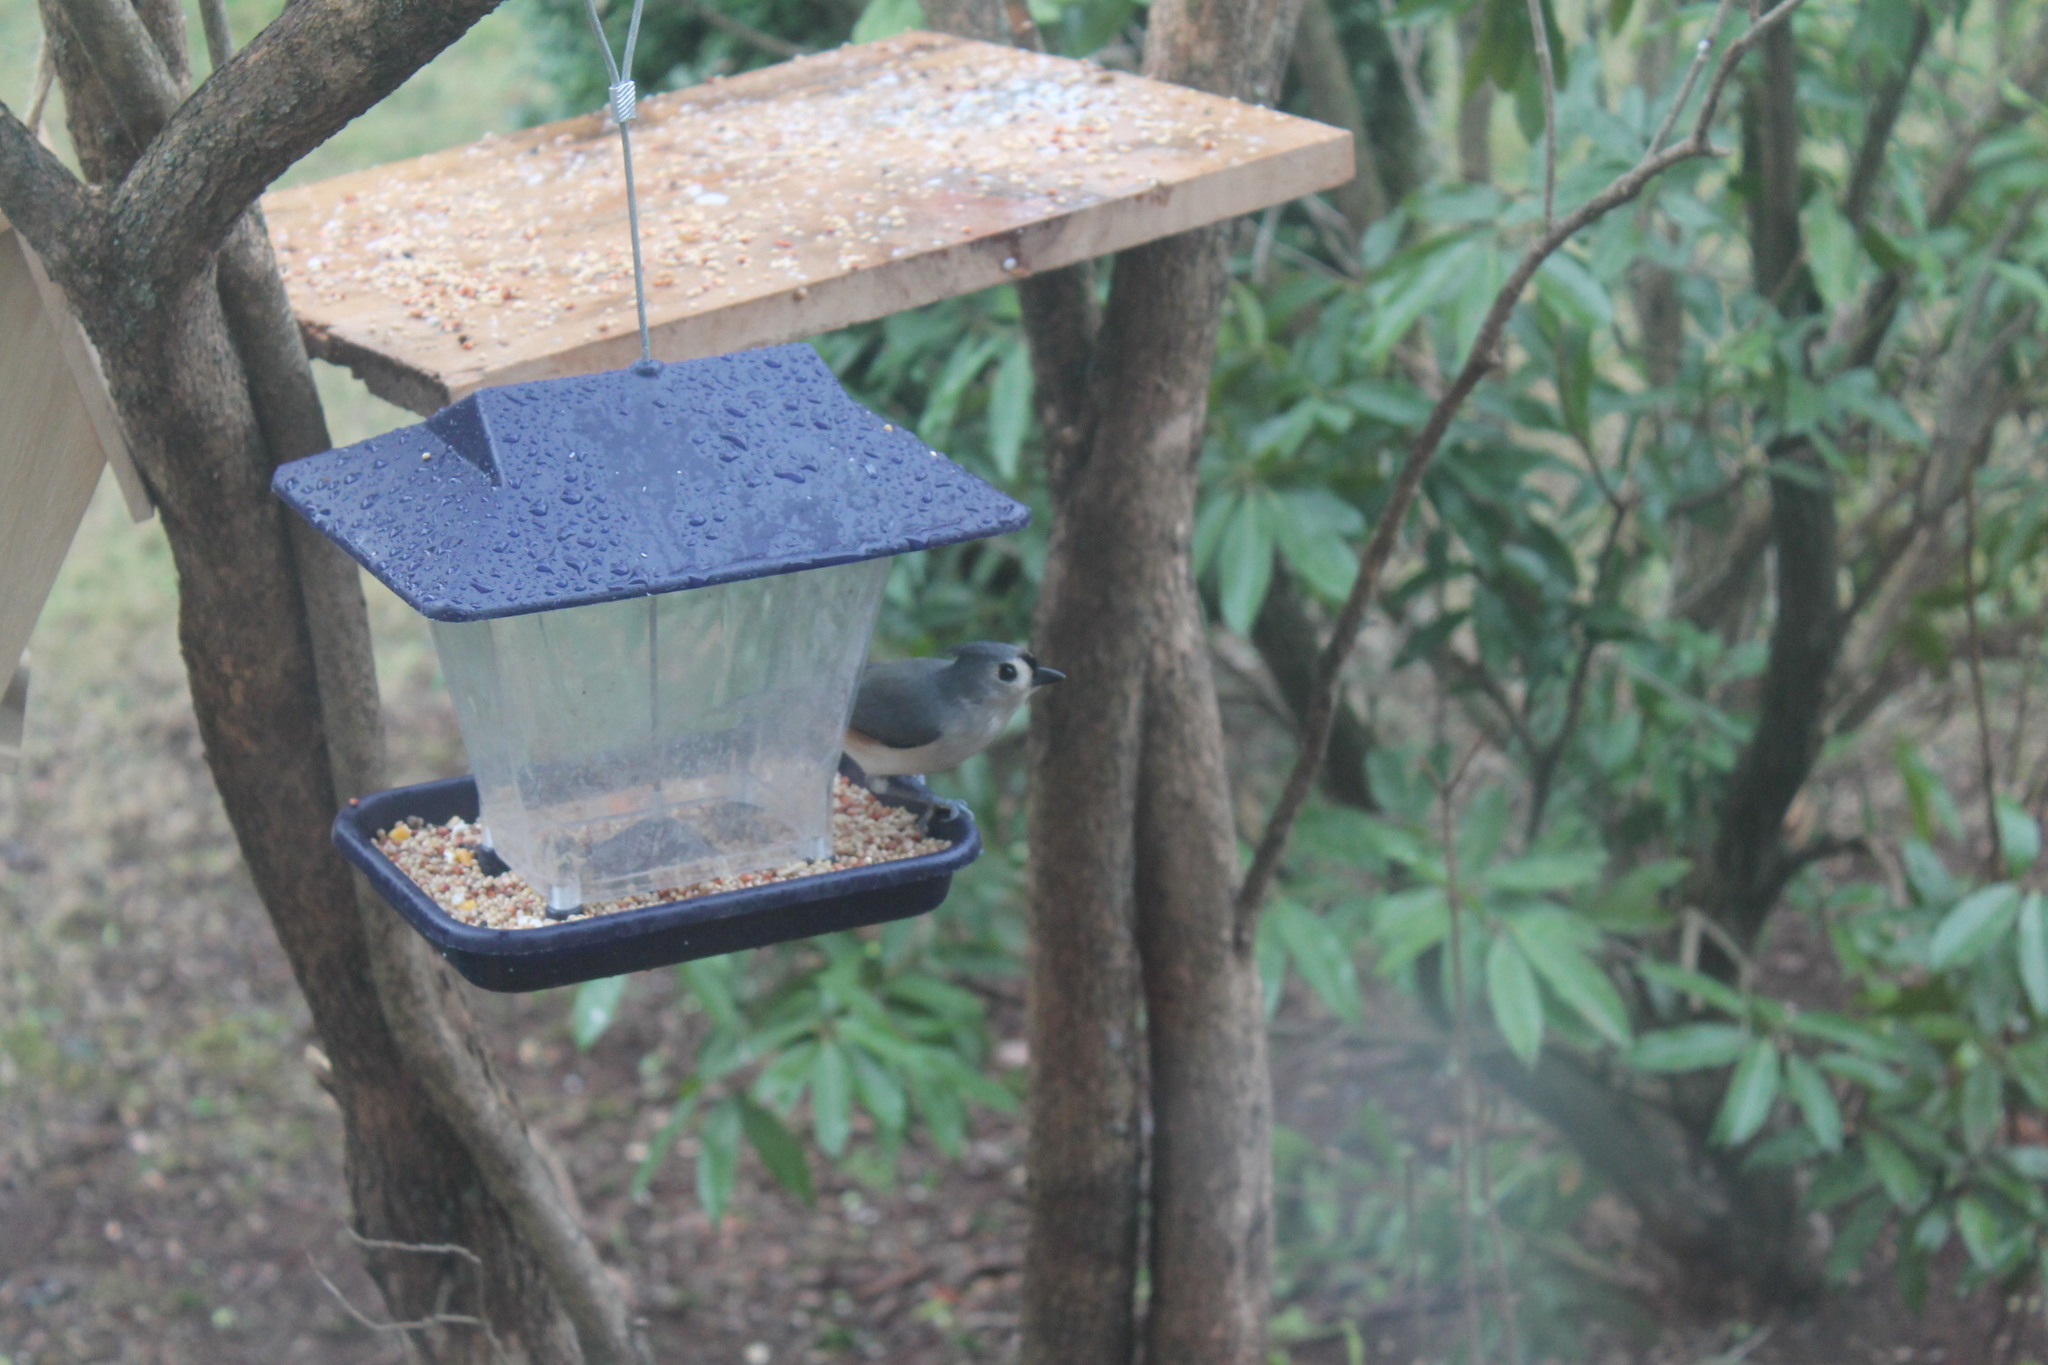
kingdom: Animalia
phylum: Chordata
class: Aves
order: Passeriformes
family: Paridae
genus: Baeolophus
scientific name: Baeolophus bicolor
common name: Tufted titmouse
